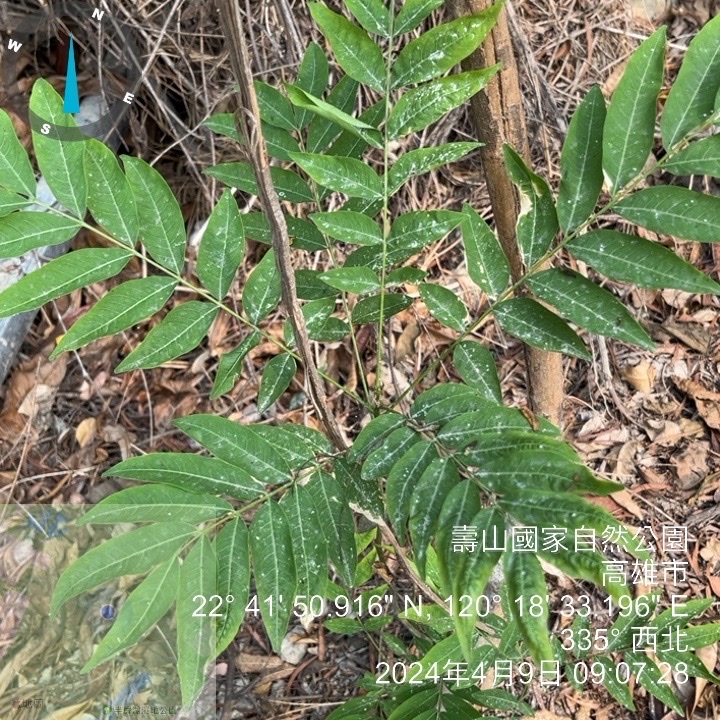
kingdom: Plantae
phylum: Tracheophyta
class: Magnoliopsida
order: Sapindales
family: Sapindaceae
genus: Sapindus
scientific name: Sapindus mukorossi
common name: Chinese soapberry
